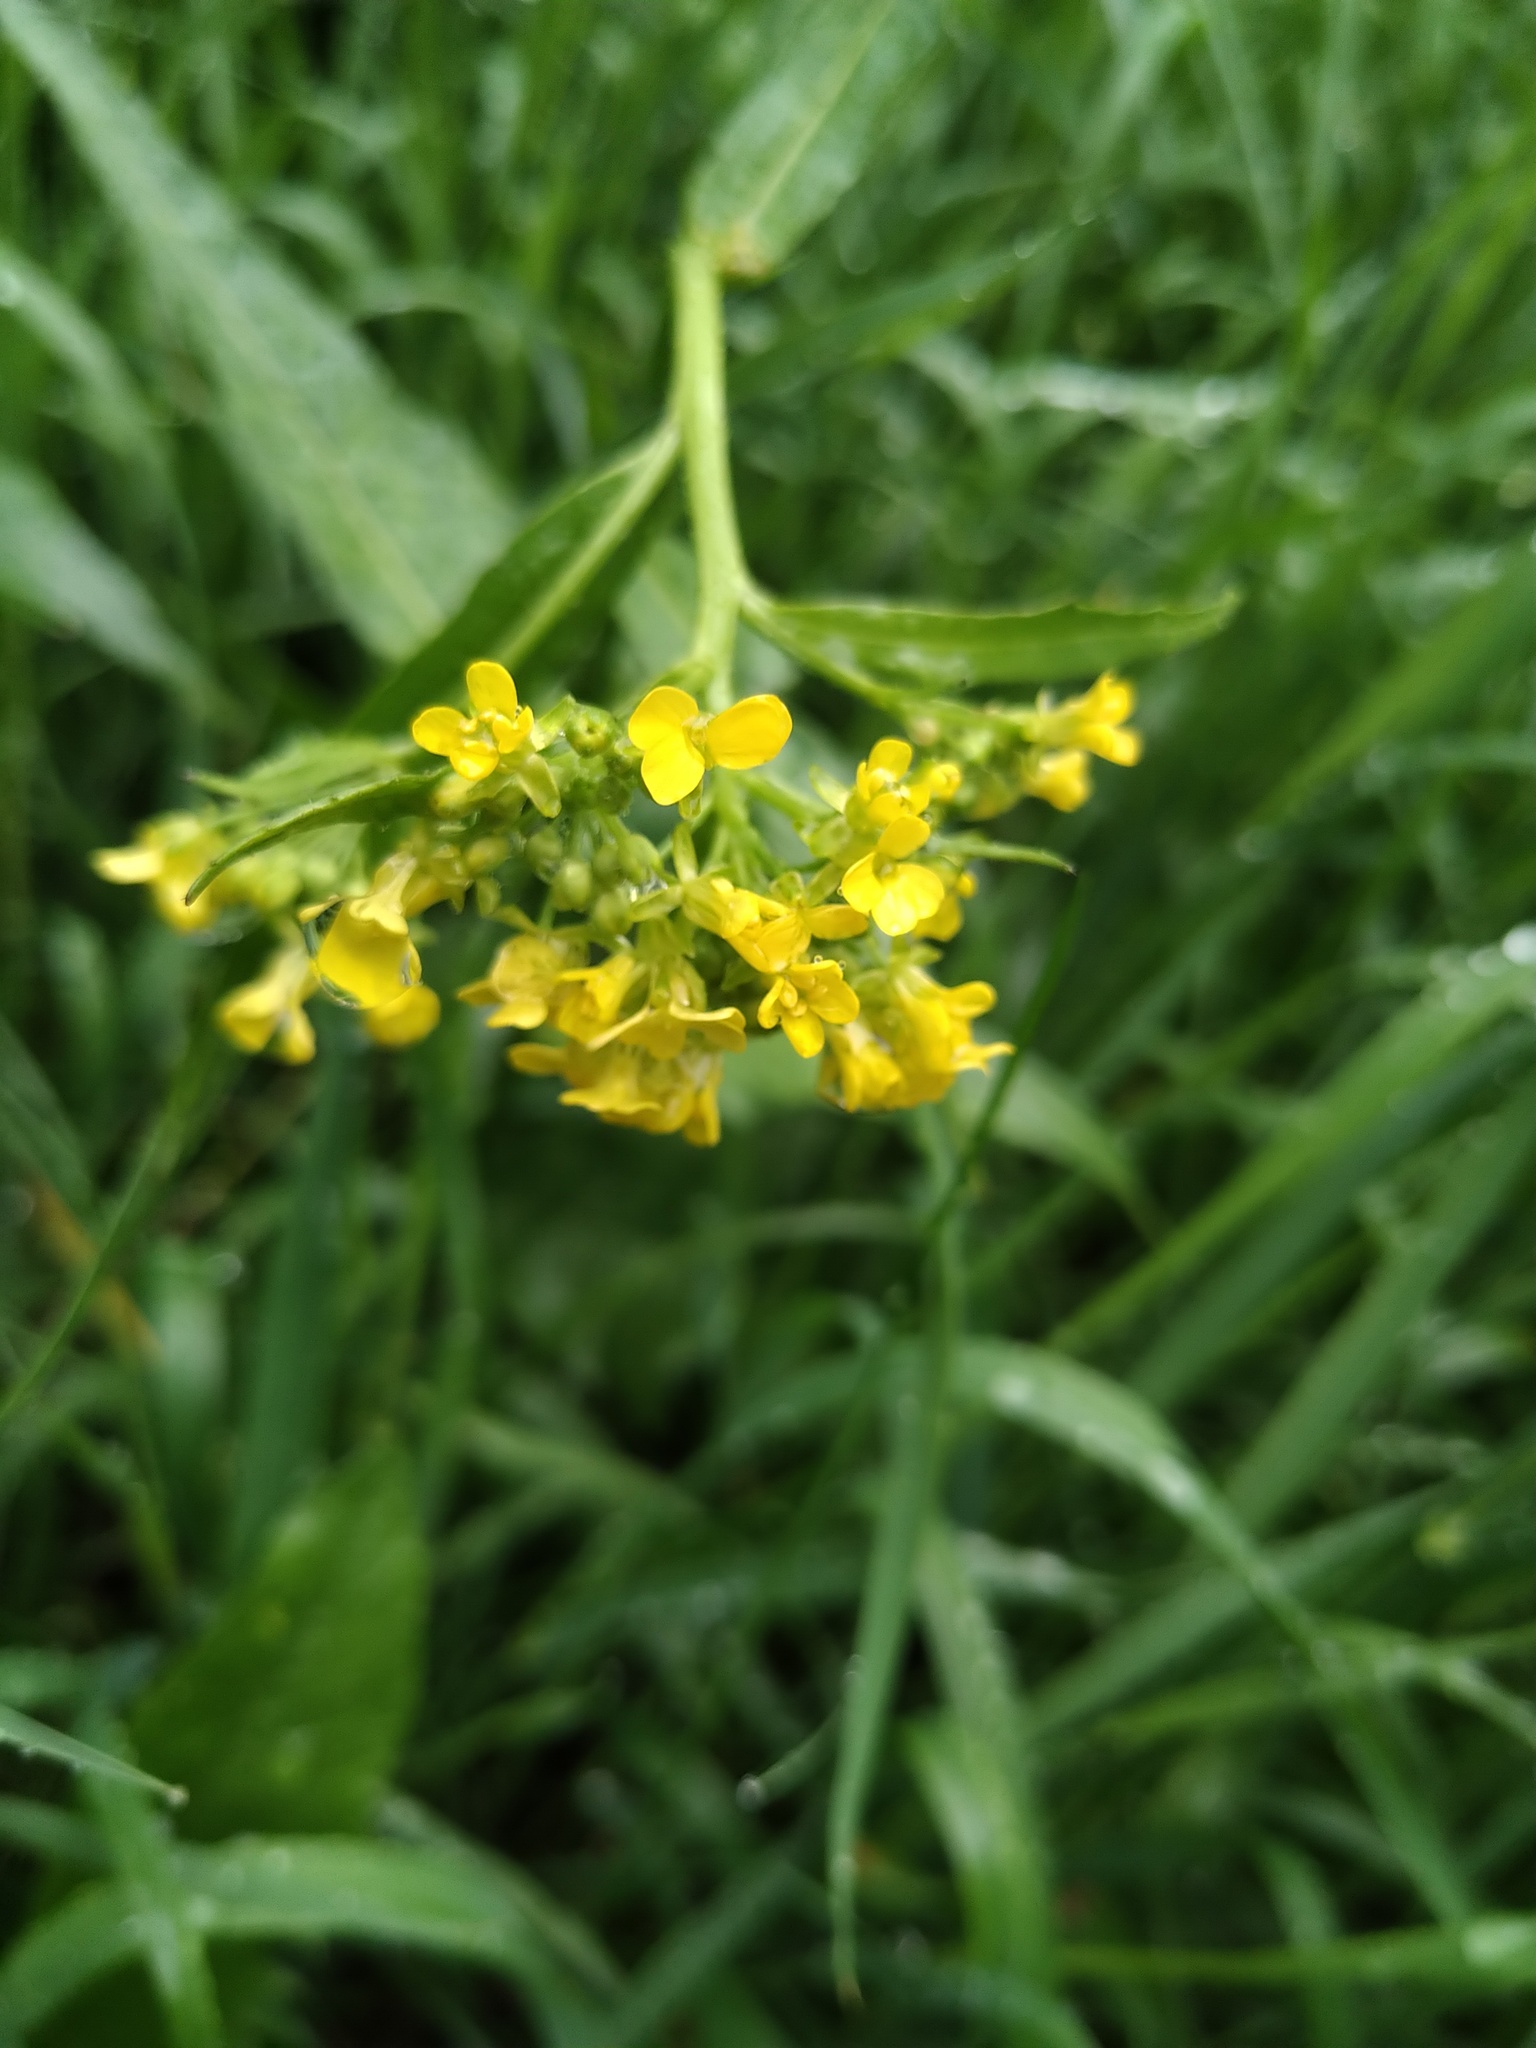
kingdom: Plantae
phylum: Tracheophyta
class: Magnoliopsida
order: Brassicales
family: Brassicaceae
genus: Bunias
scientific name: Bunias orientalis
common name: Warty-cabbage
